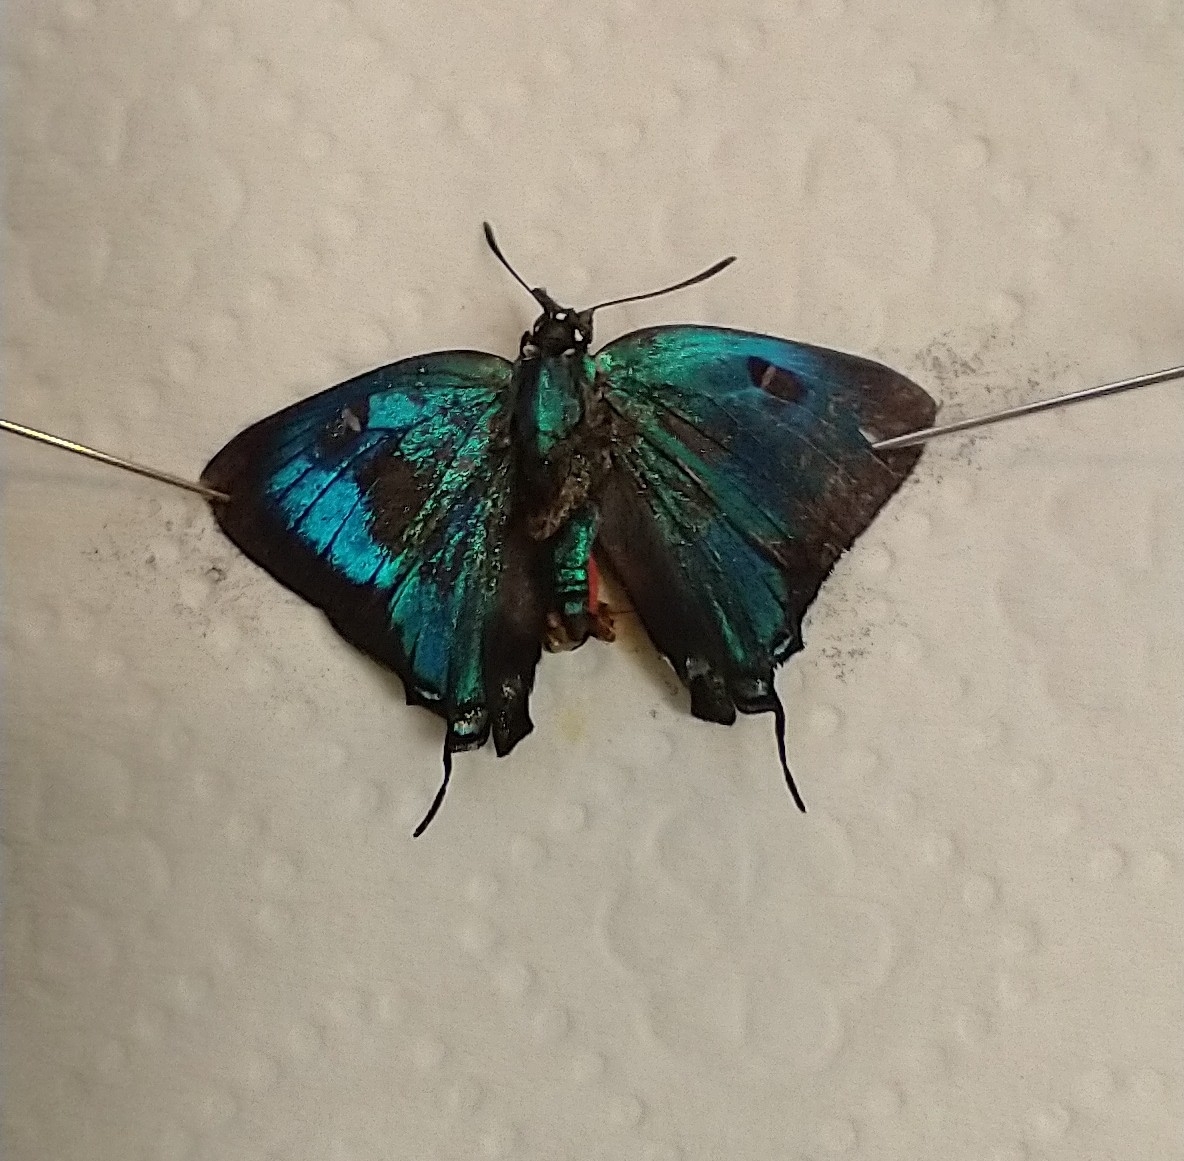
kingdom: Animalia
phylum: Arthropoda
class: Insecta
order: Lepidoptera
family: Lycaenidae
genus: Atlides
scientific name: Atlides halesus
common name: Great purple hairstreak
